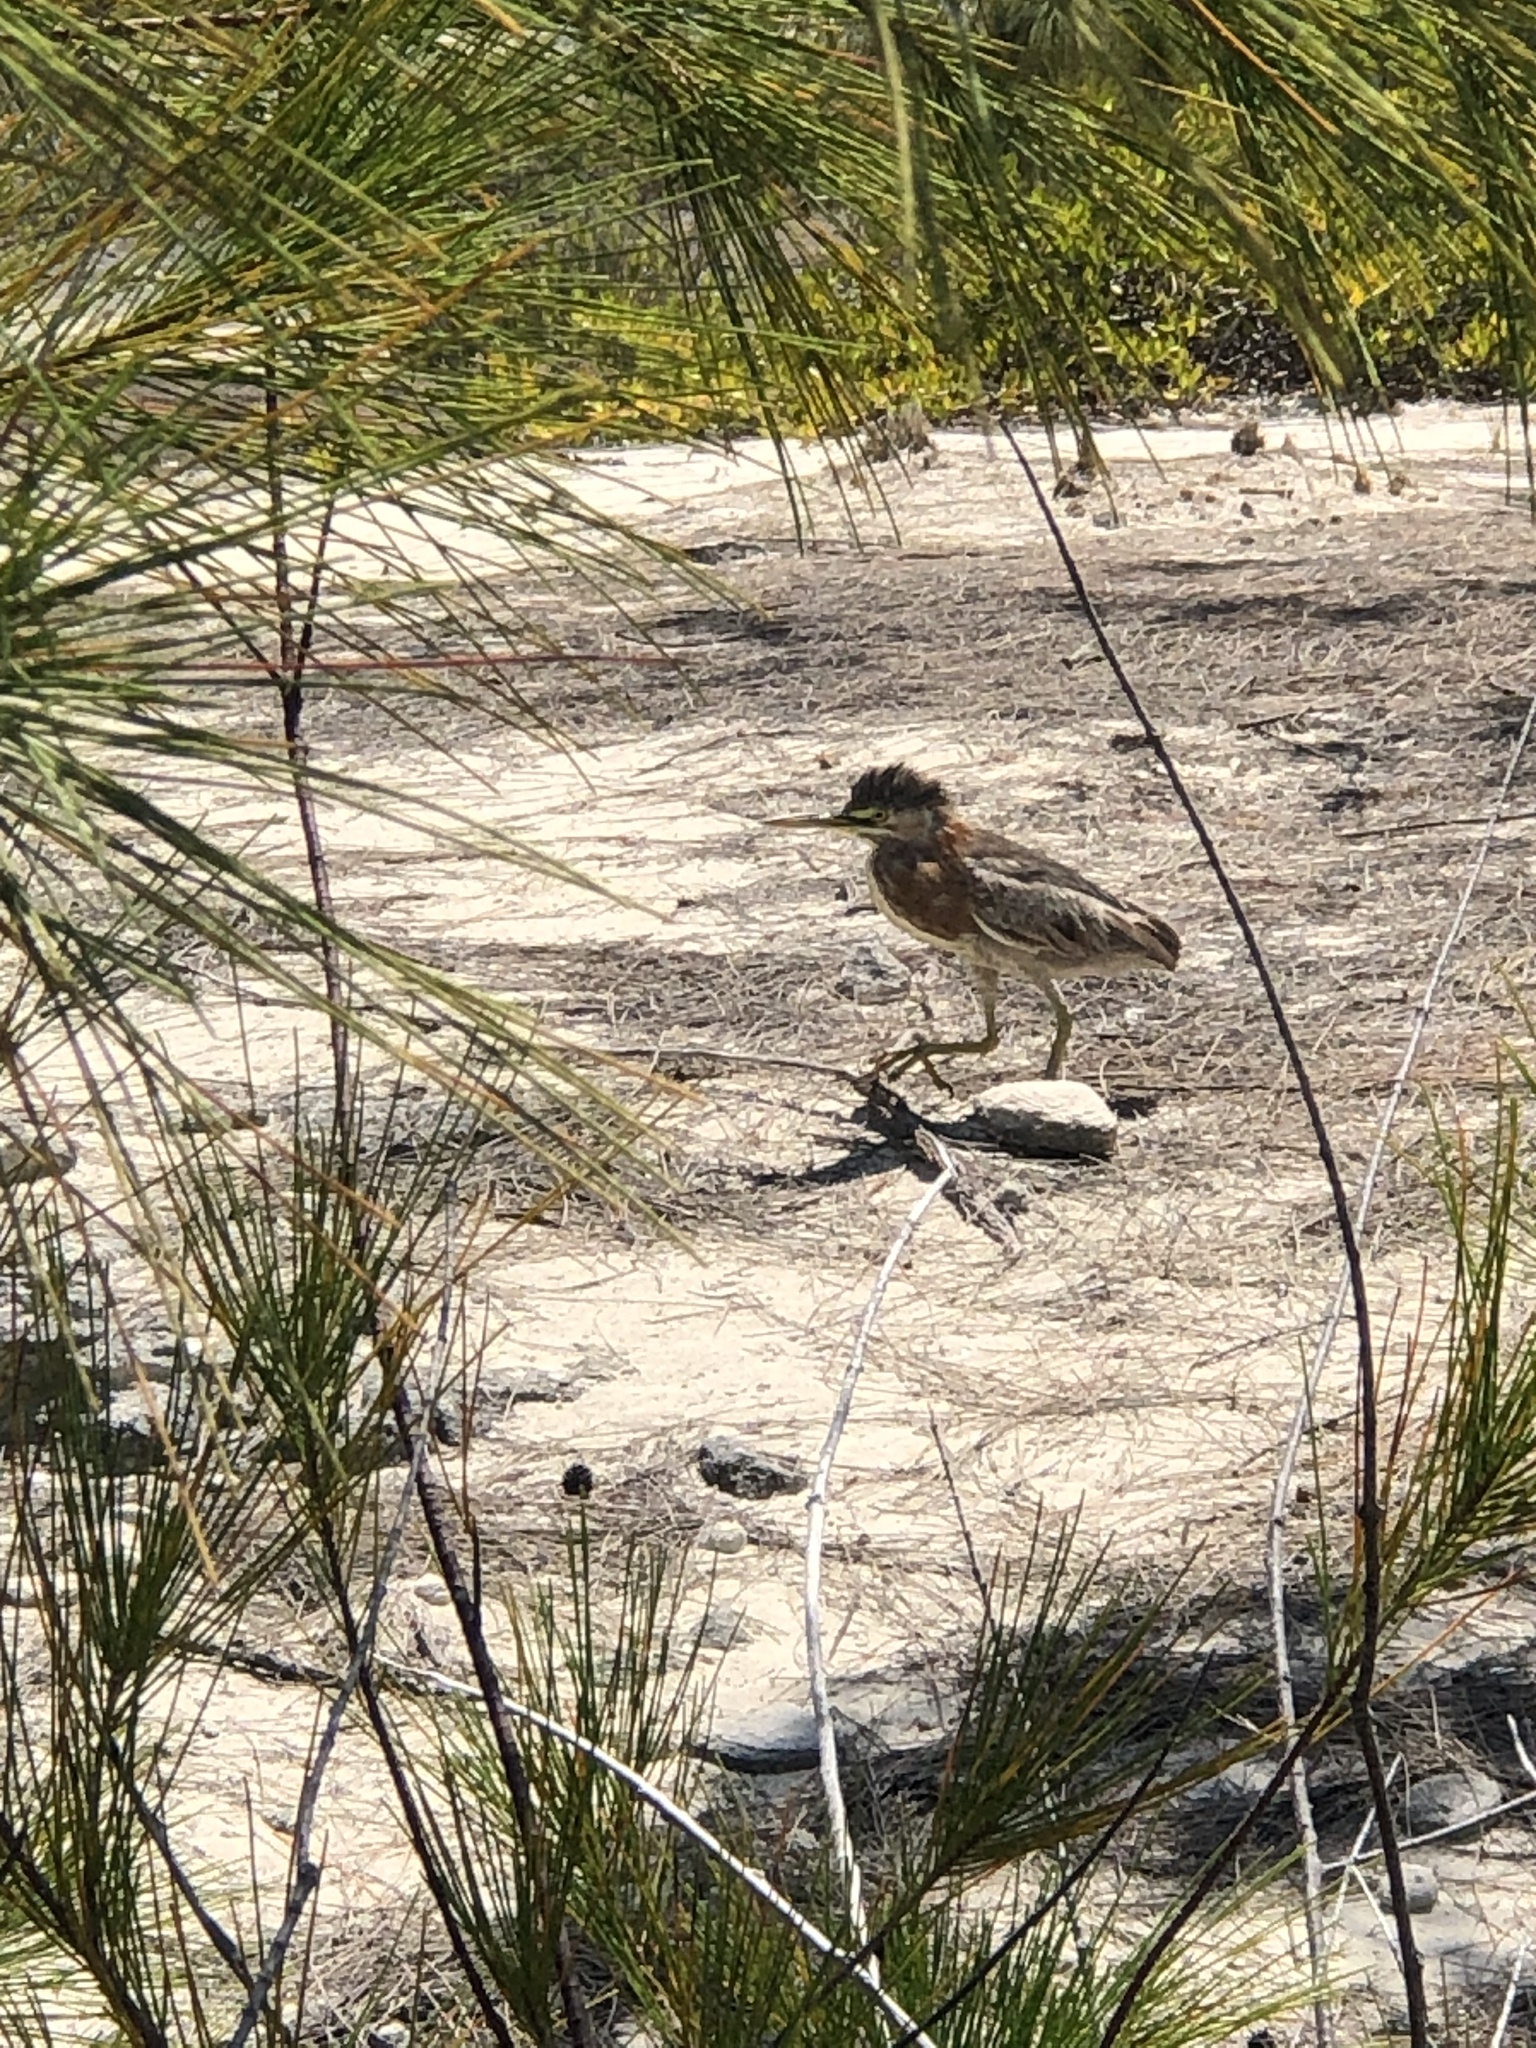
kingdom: Animalia
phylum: Chordata
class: Aves
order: Pelecaniformes
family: Ardeidae
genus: Butorides
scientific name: Butorides virescens
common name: Green heron
